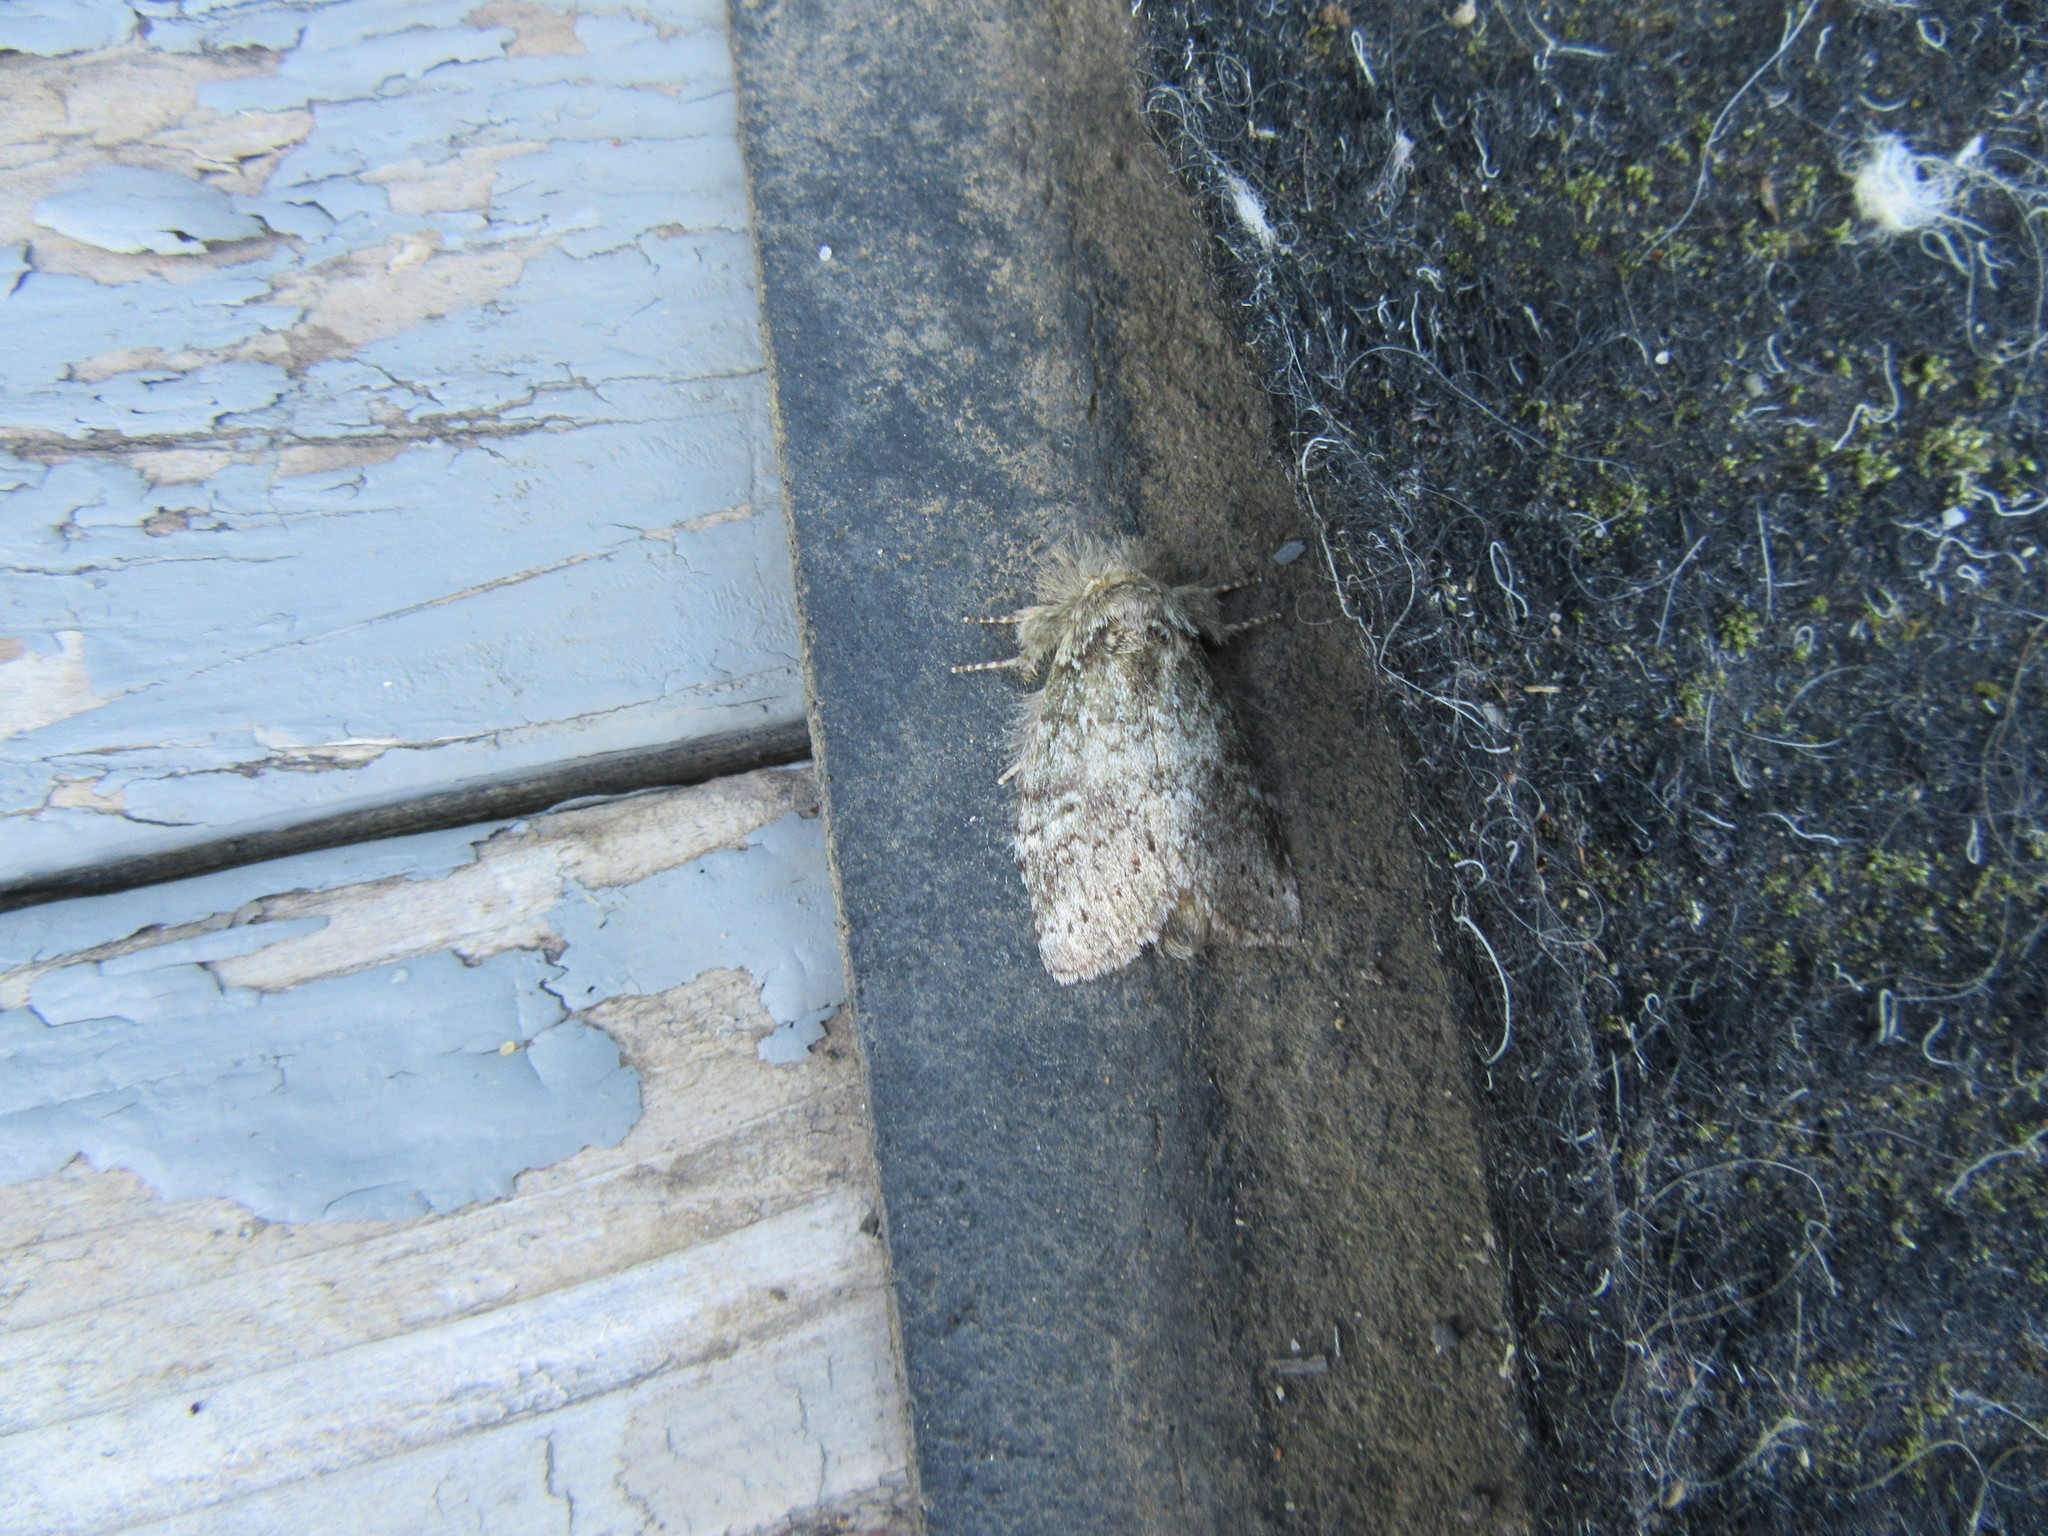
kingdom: Animalia
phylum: Arthropoda
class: Insecta
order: Lepidoptera
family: Notodontidae
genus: Lochmaeus
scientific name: Lochmaeus manteo
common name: Variable oakleaf caterpillar moth
